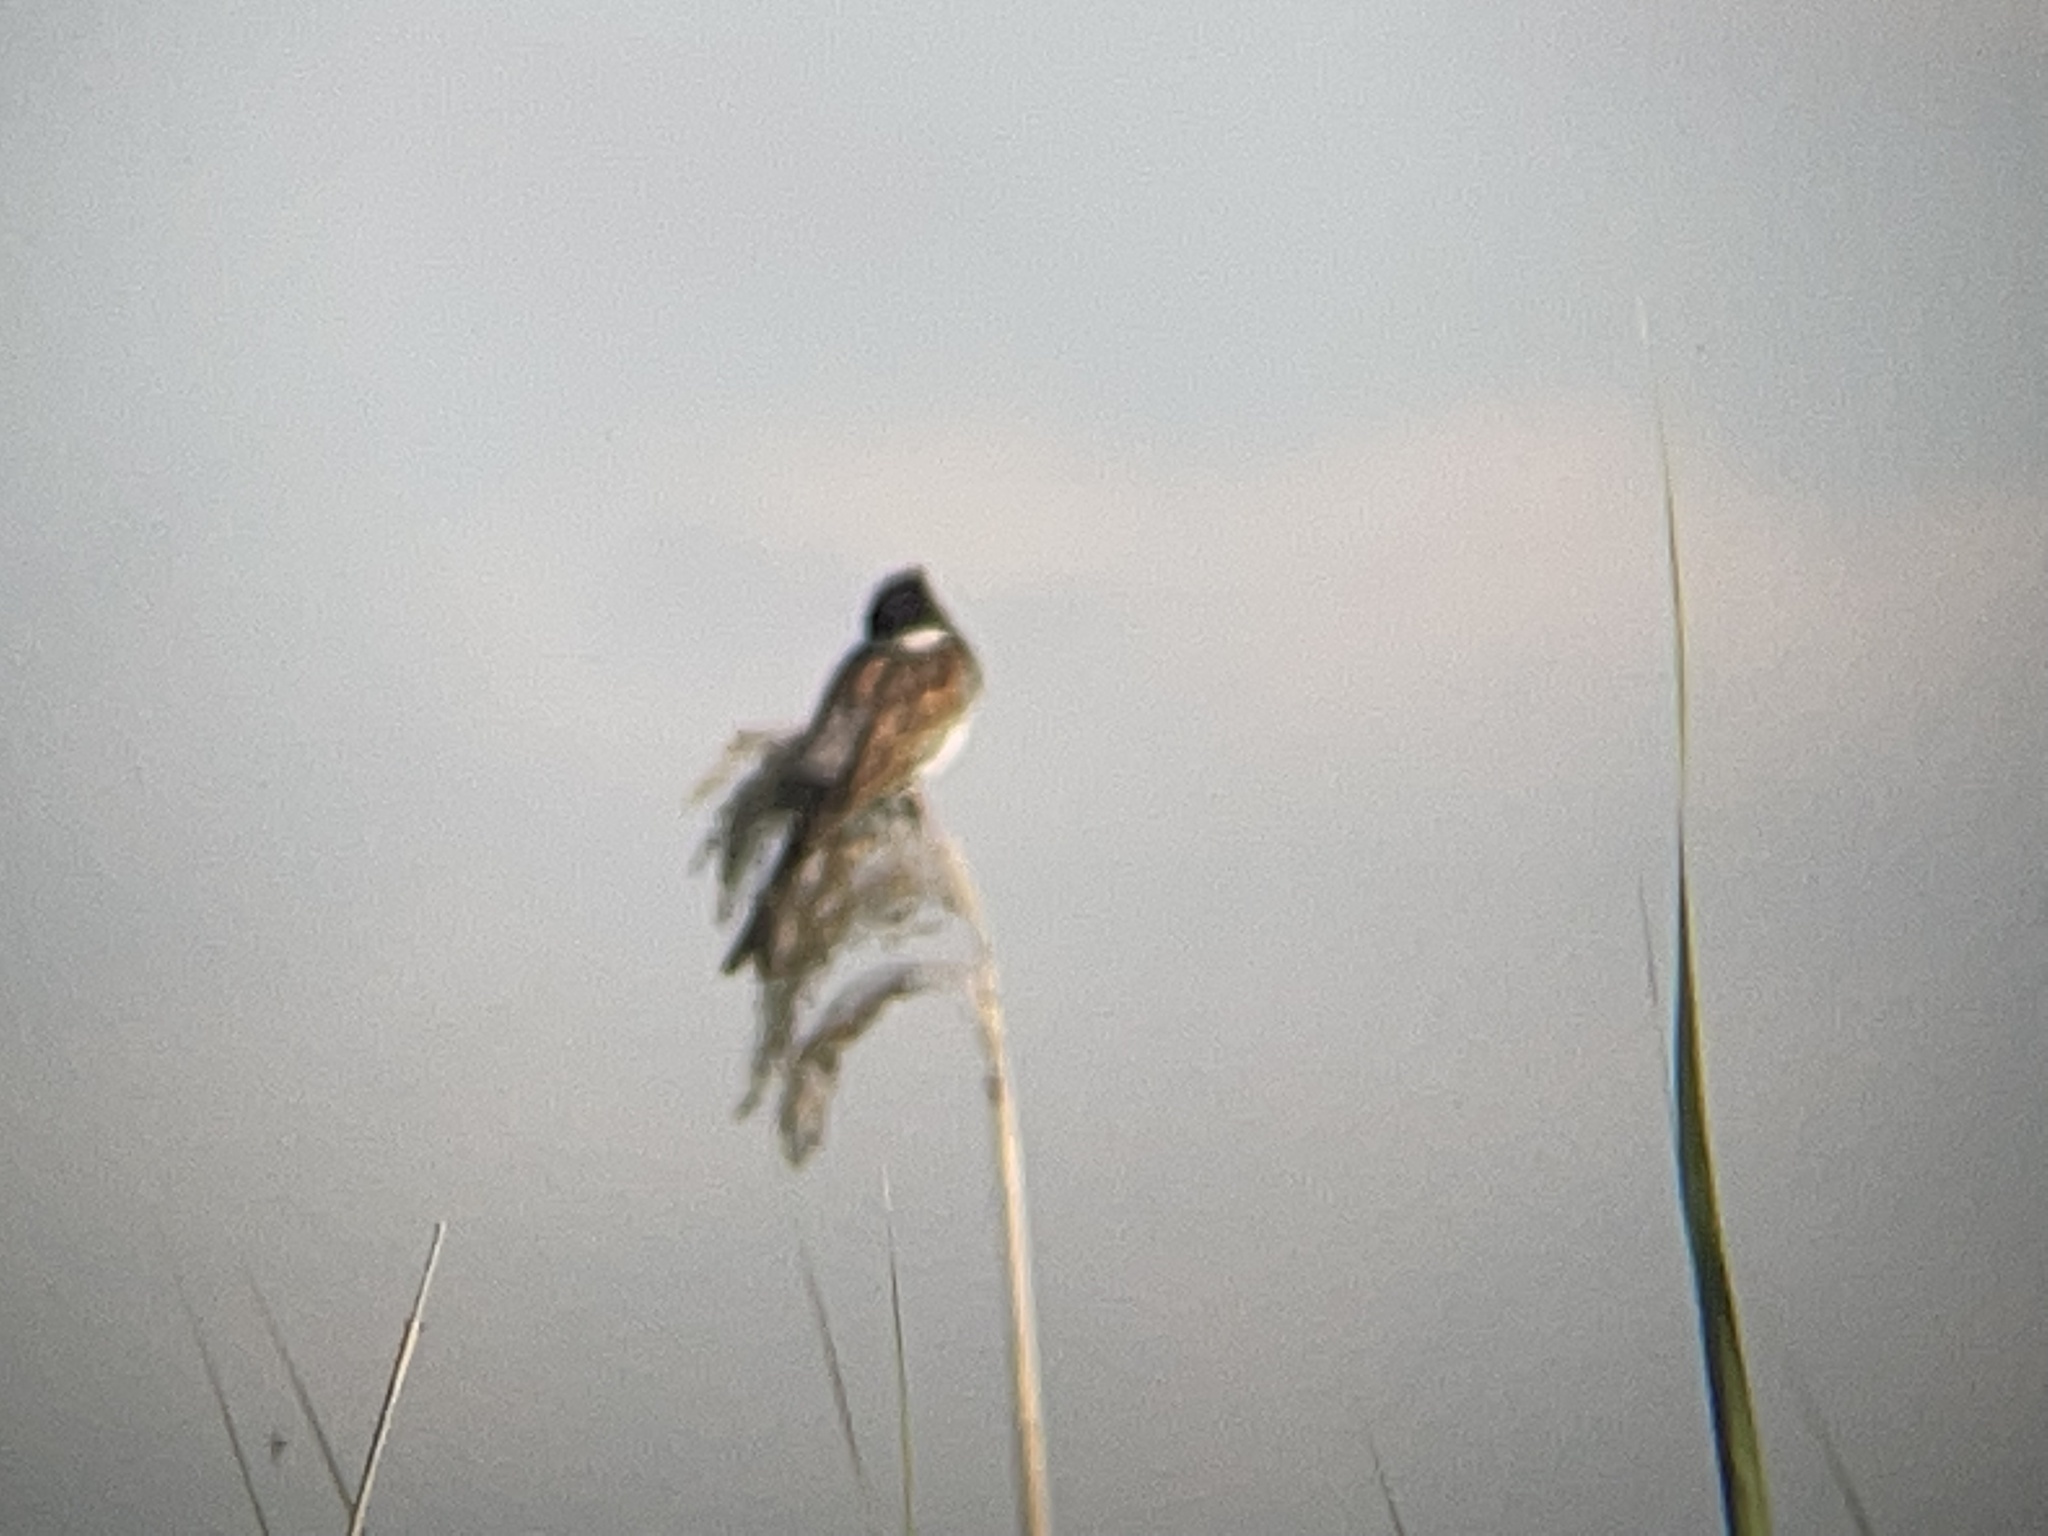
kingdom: Animalia
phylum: Chordata
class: Aves
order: Passeriformes
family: Emberizidae
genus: Emberiza
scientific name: Emberiza schoeniclus
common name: Reed bunting
